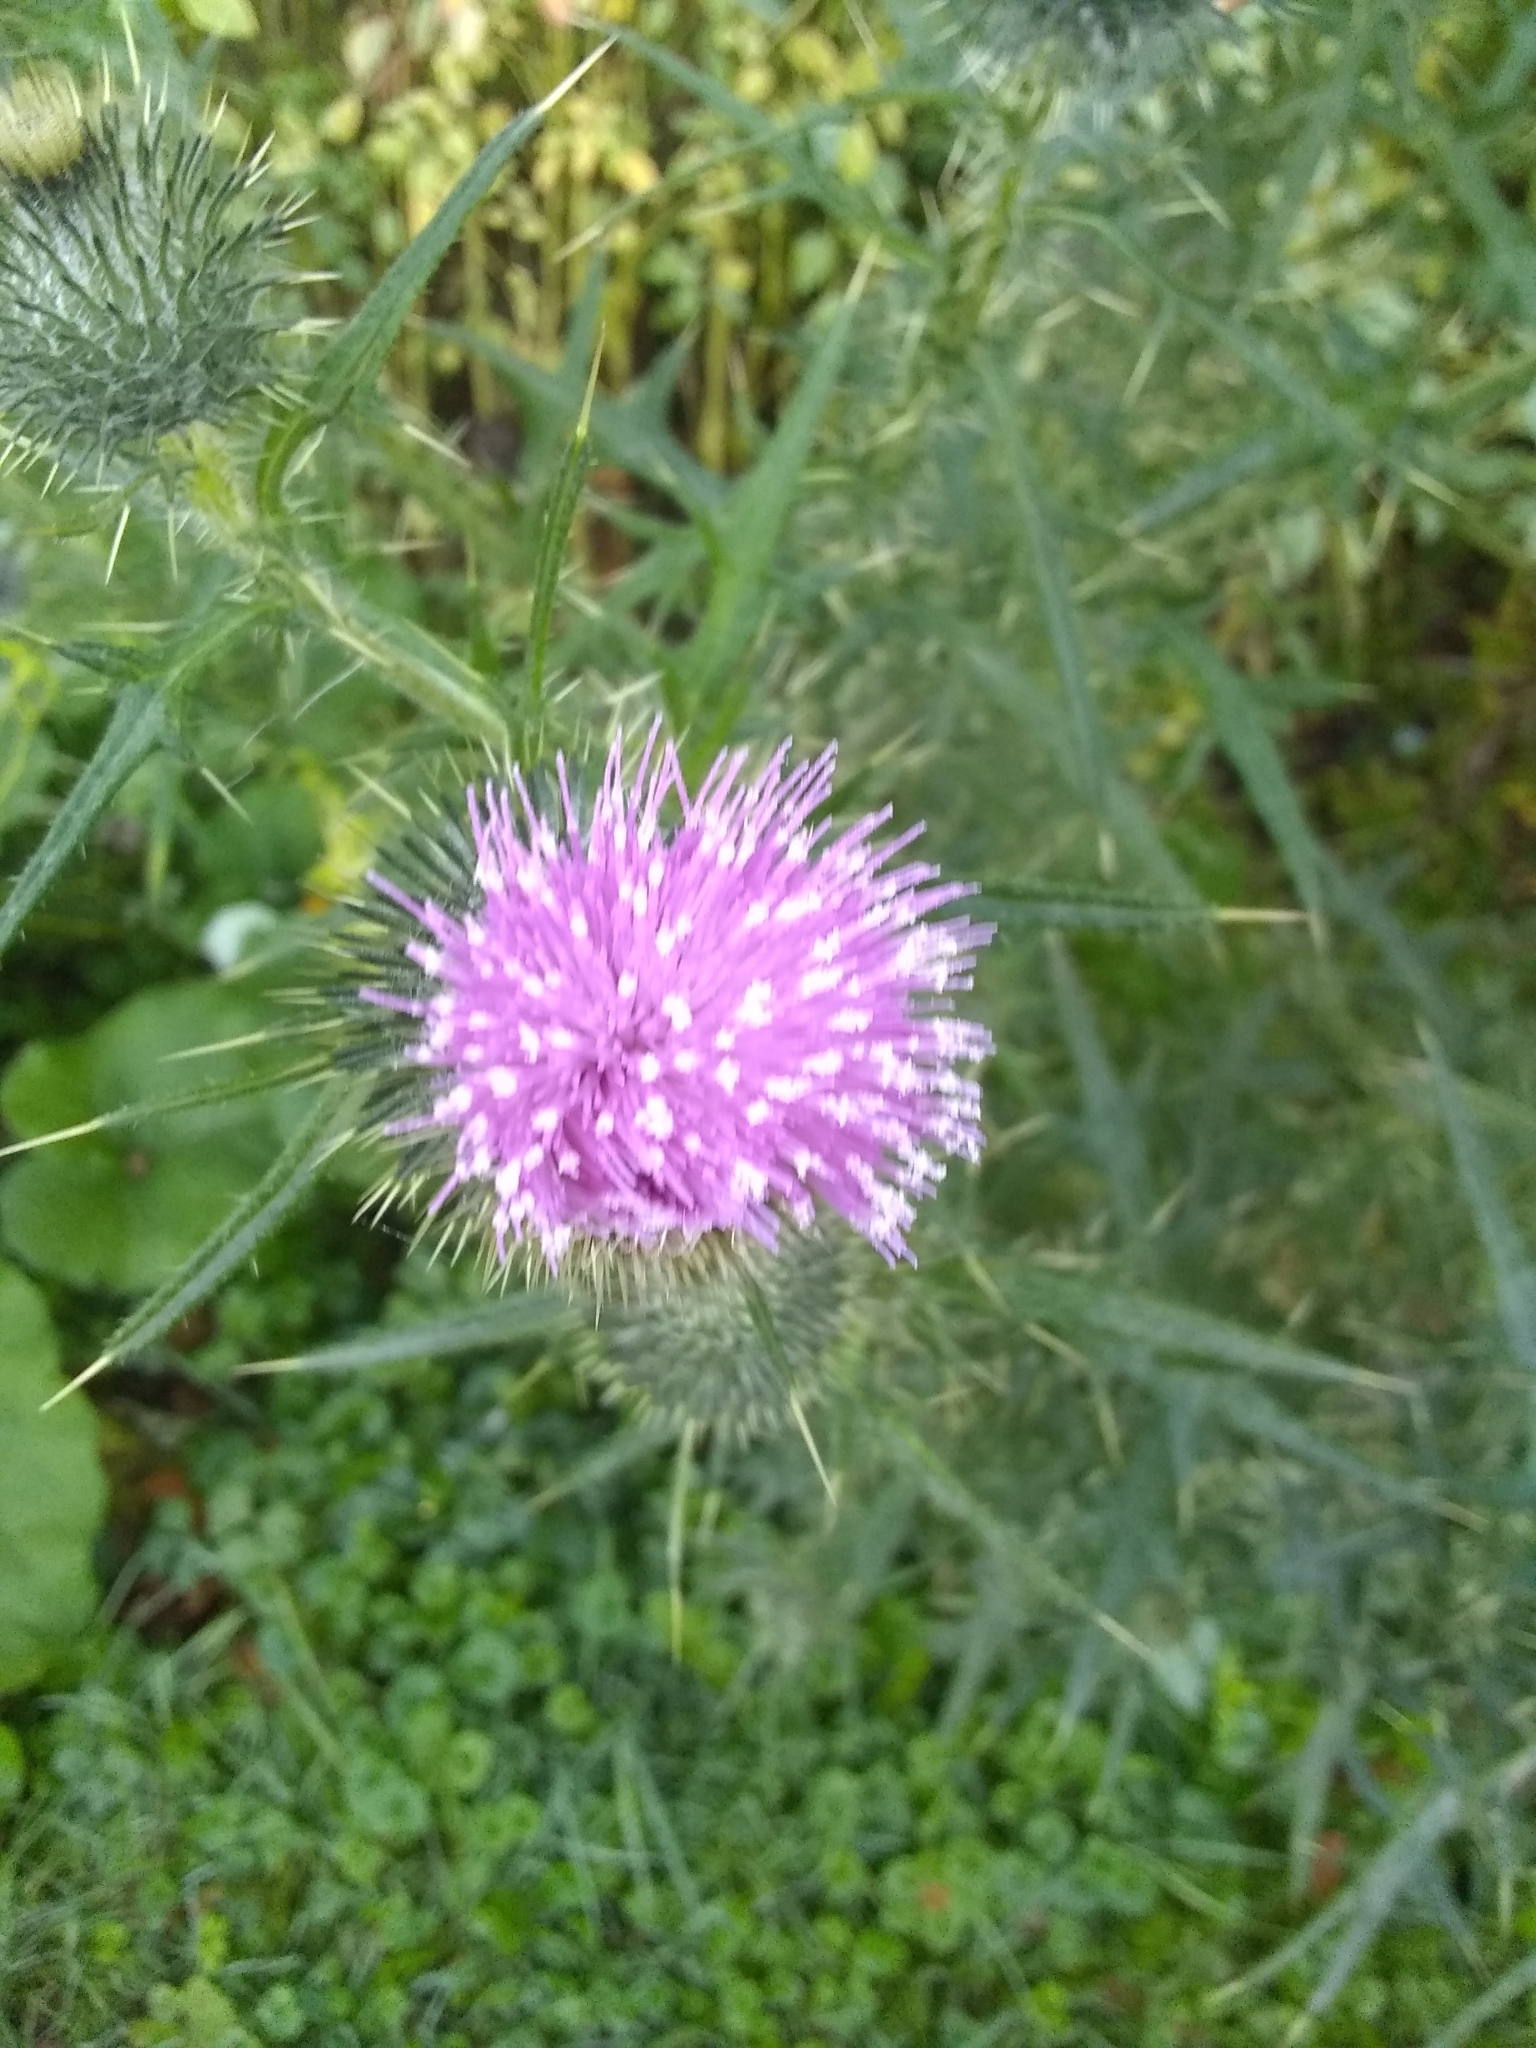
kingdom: Plantae
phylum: Tracheophyta
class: Magnoliopsida
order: Asterales
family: Asteraceae
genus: Cirsium
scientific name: Cirsium vulgare
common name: Bull thistle
